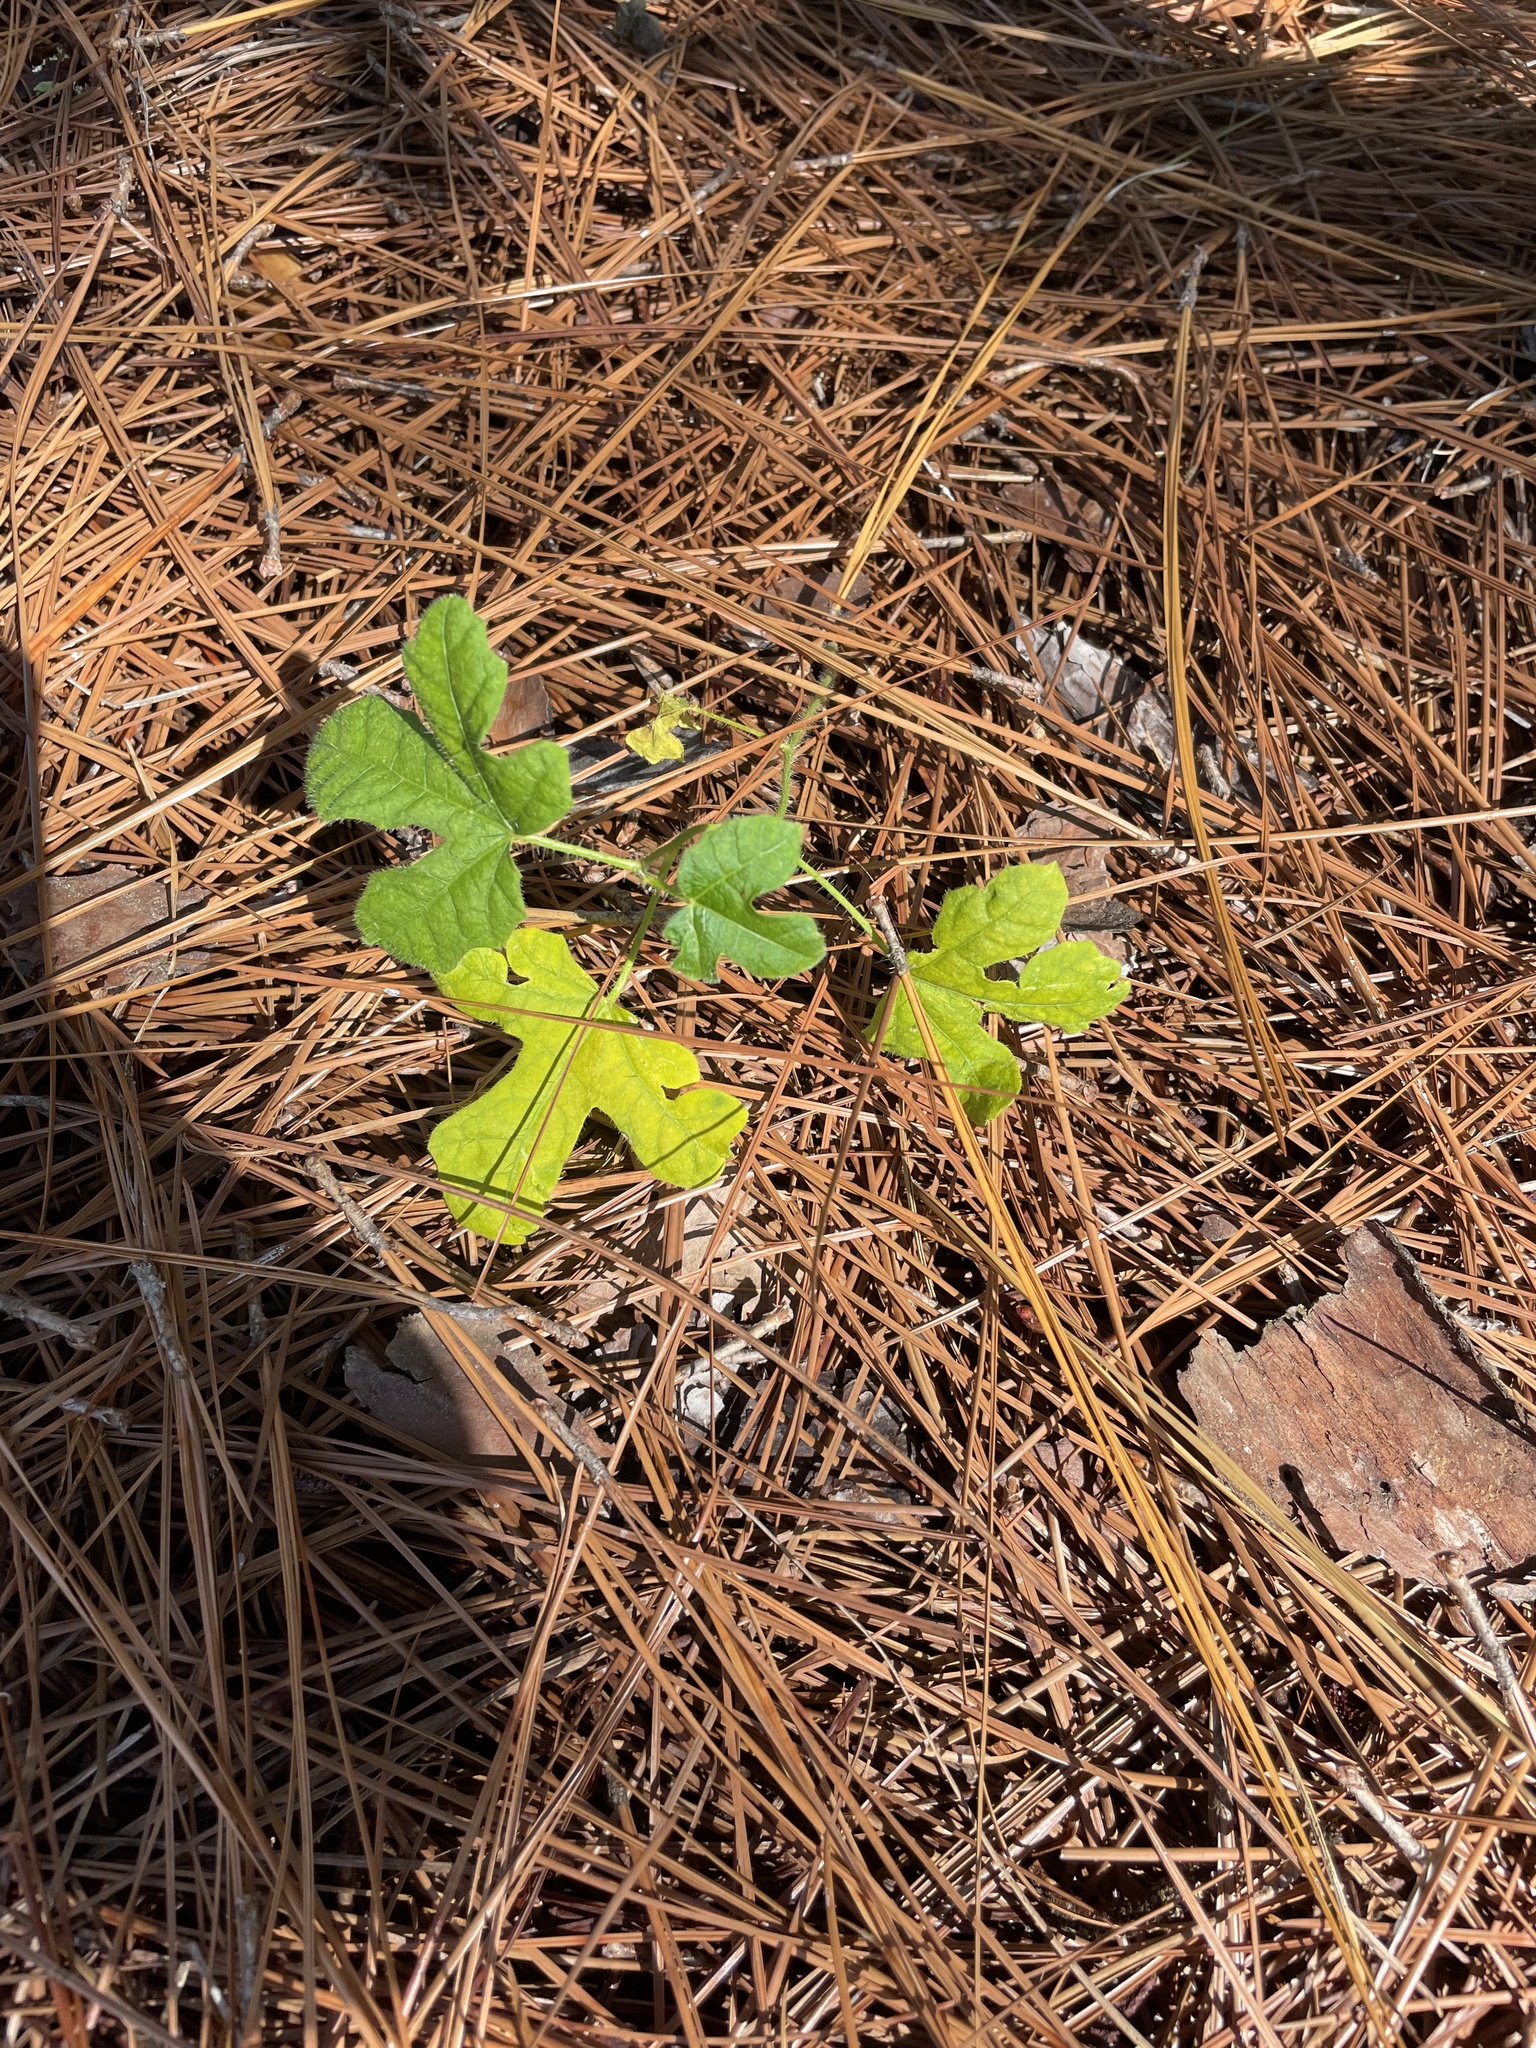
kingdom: Plantae
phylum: Tracheophyta
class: Magnoliopsida
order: Malpighiales
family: Euphorbiaceae
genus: Cnidoscolus
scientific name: Cnidoscolus stimulosus
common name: Bull-nettle
